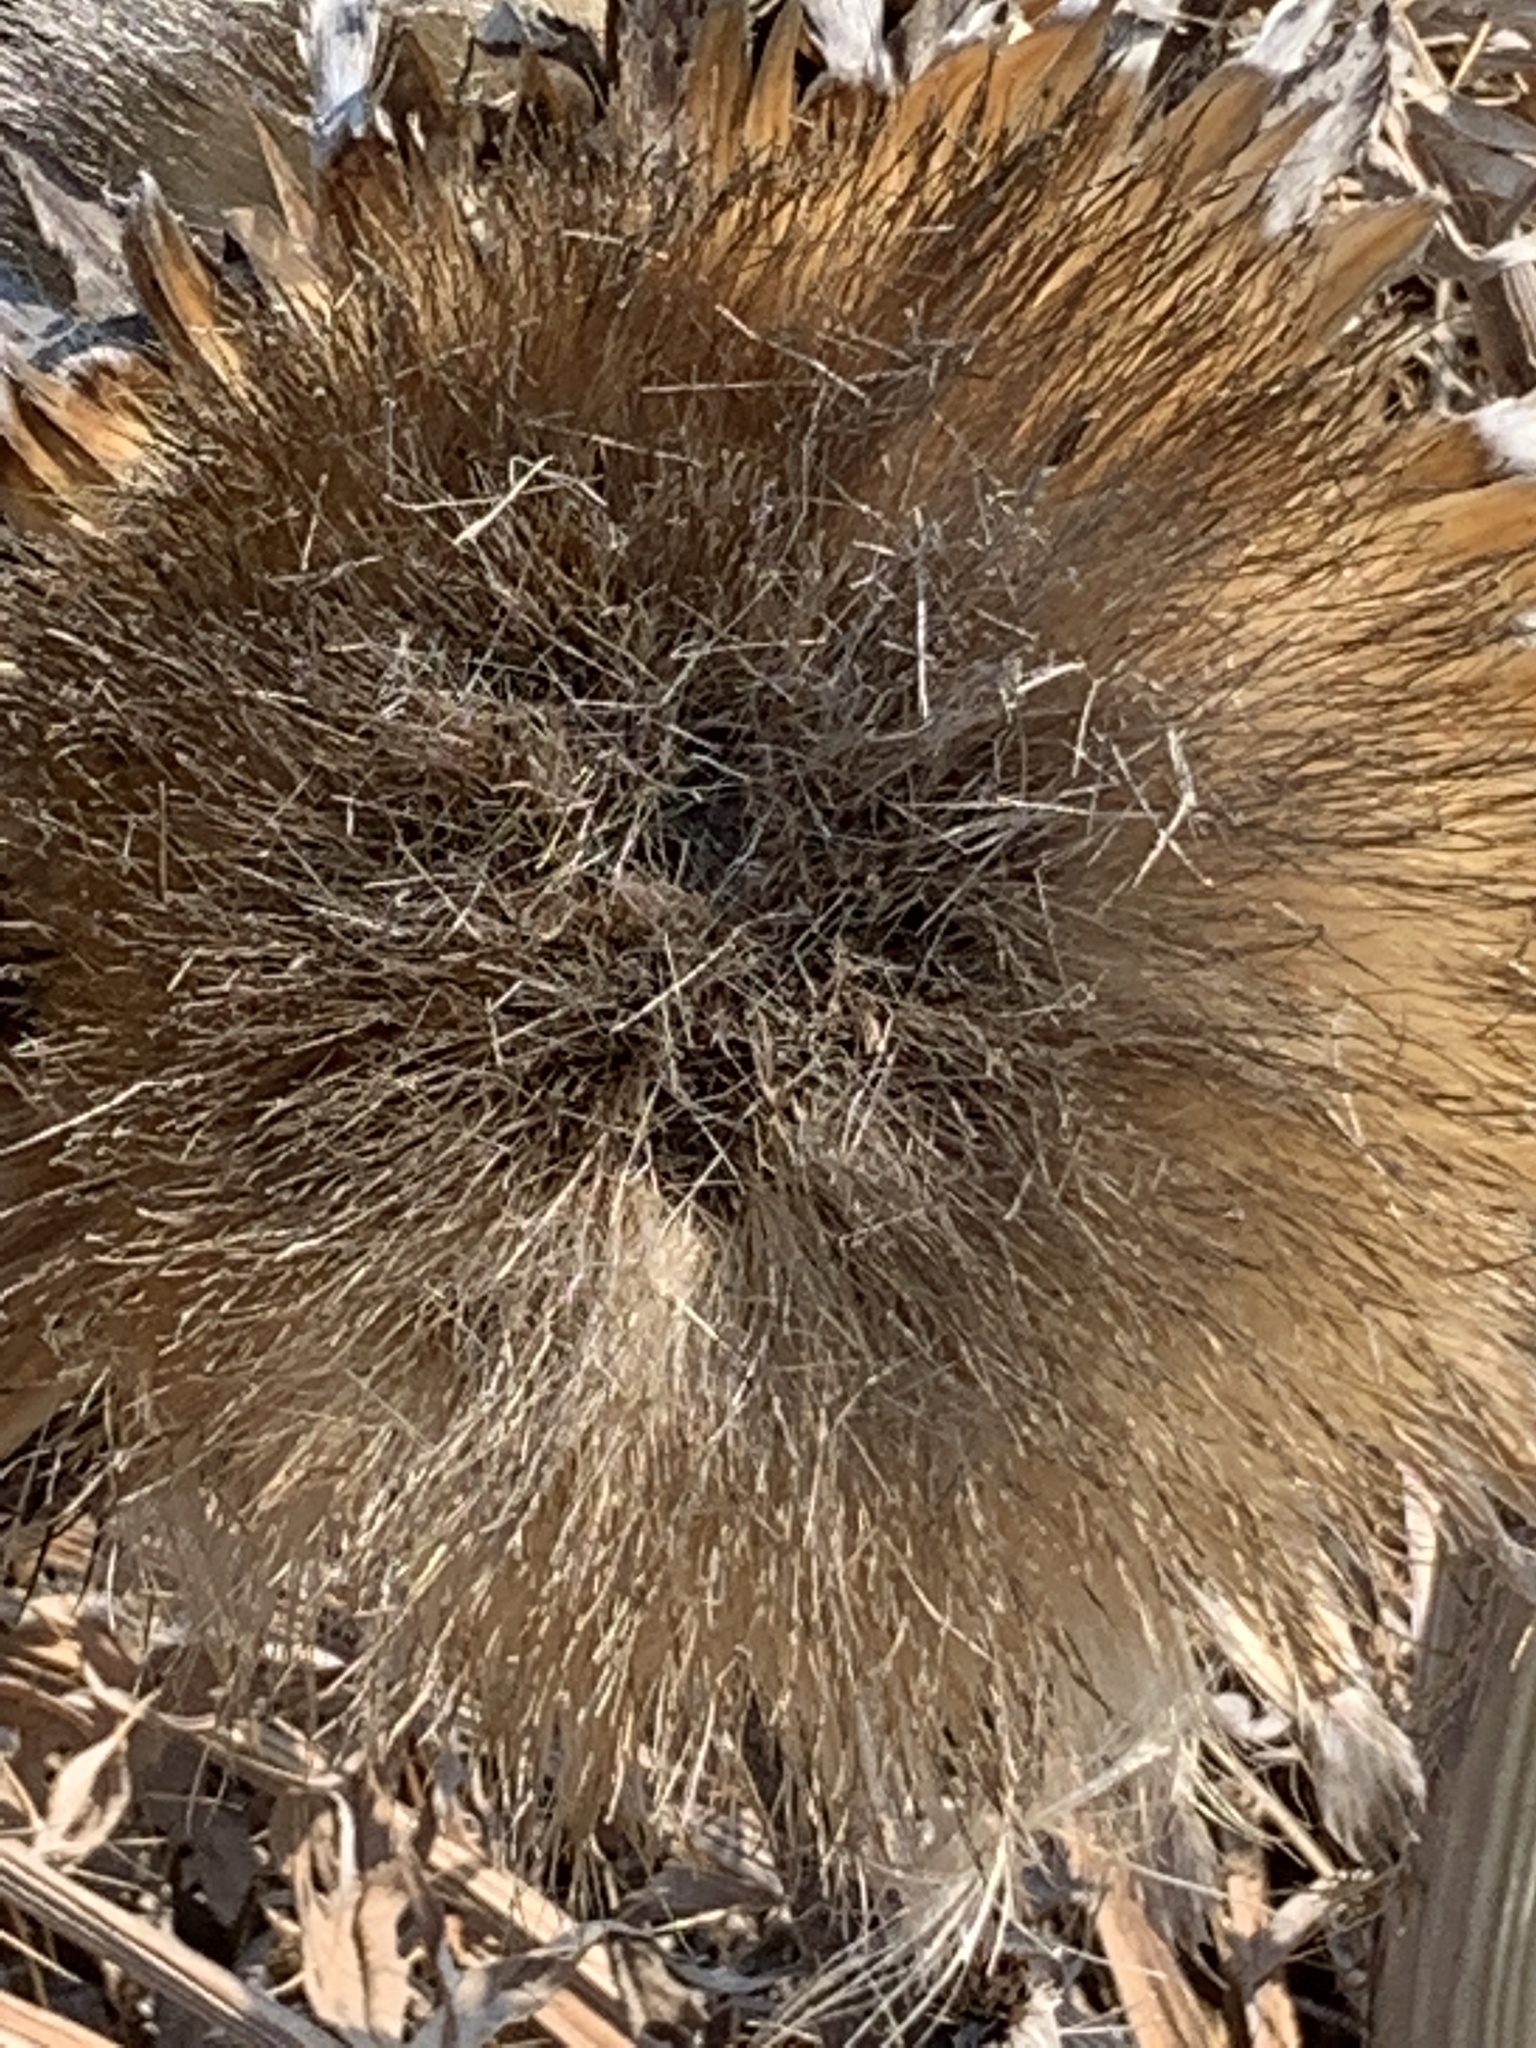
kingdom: Plantae
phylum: Tracheophyta
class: Magnoliopsida
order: Asterales
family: Asteraceae
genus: Cynara
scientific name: Cynara cardunculus
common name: Globe artichoke
